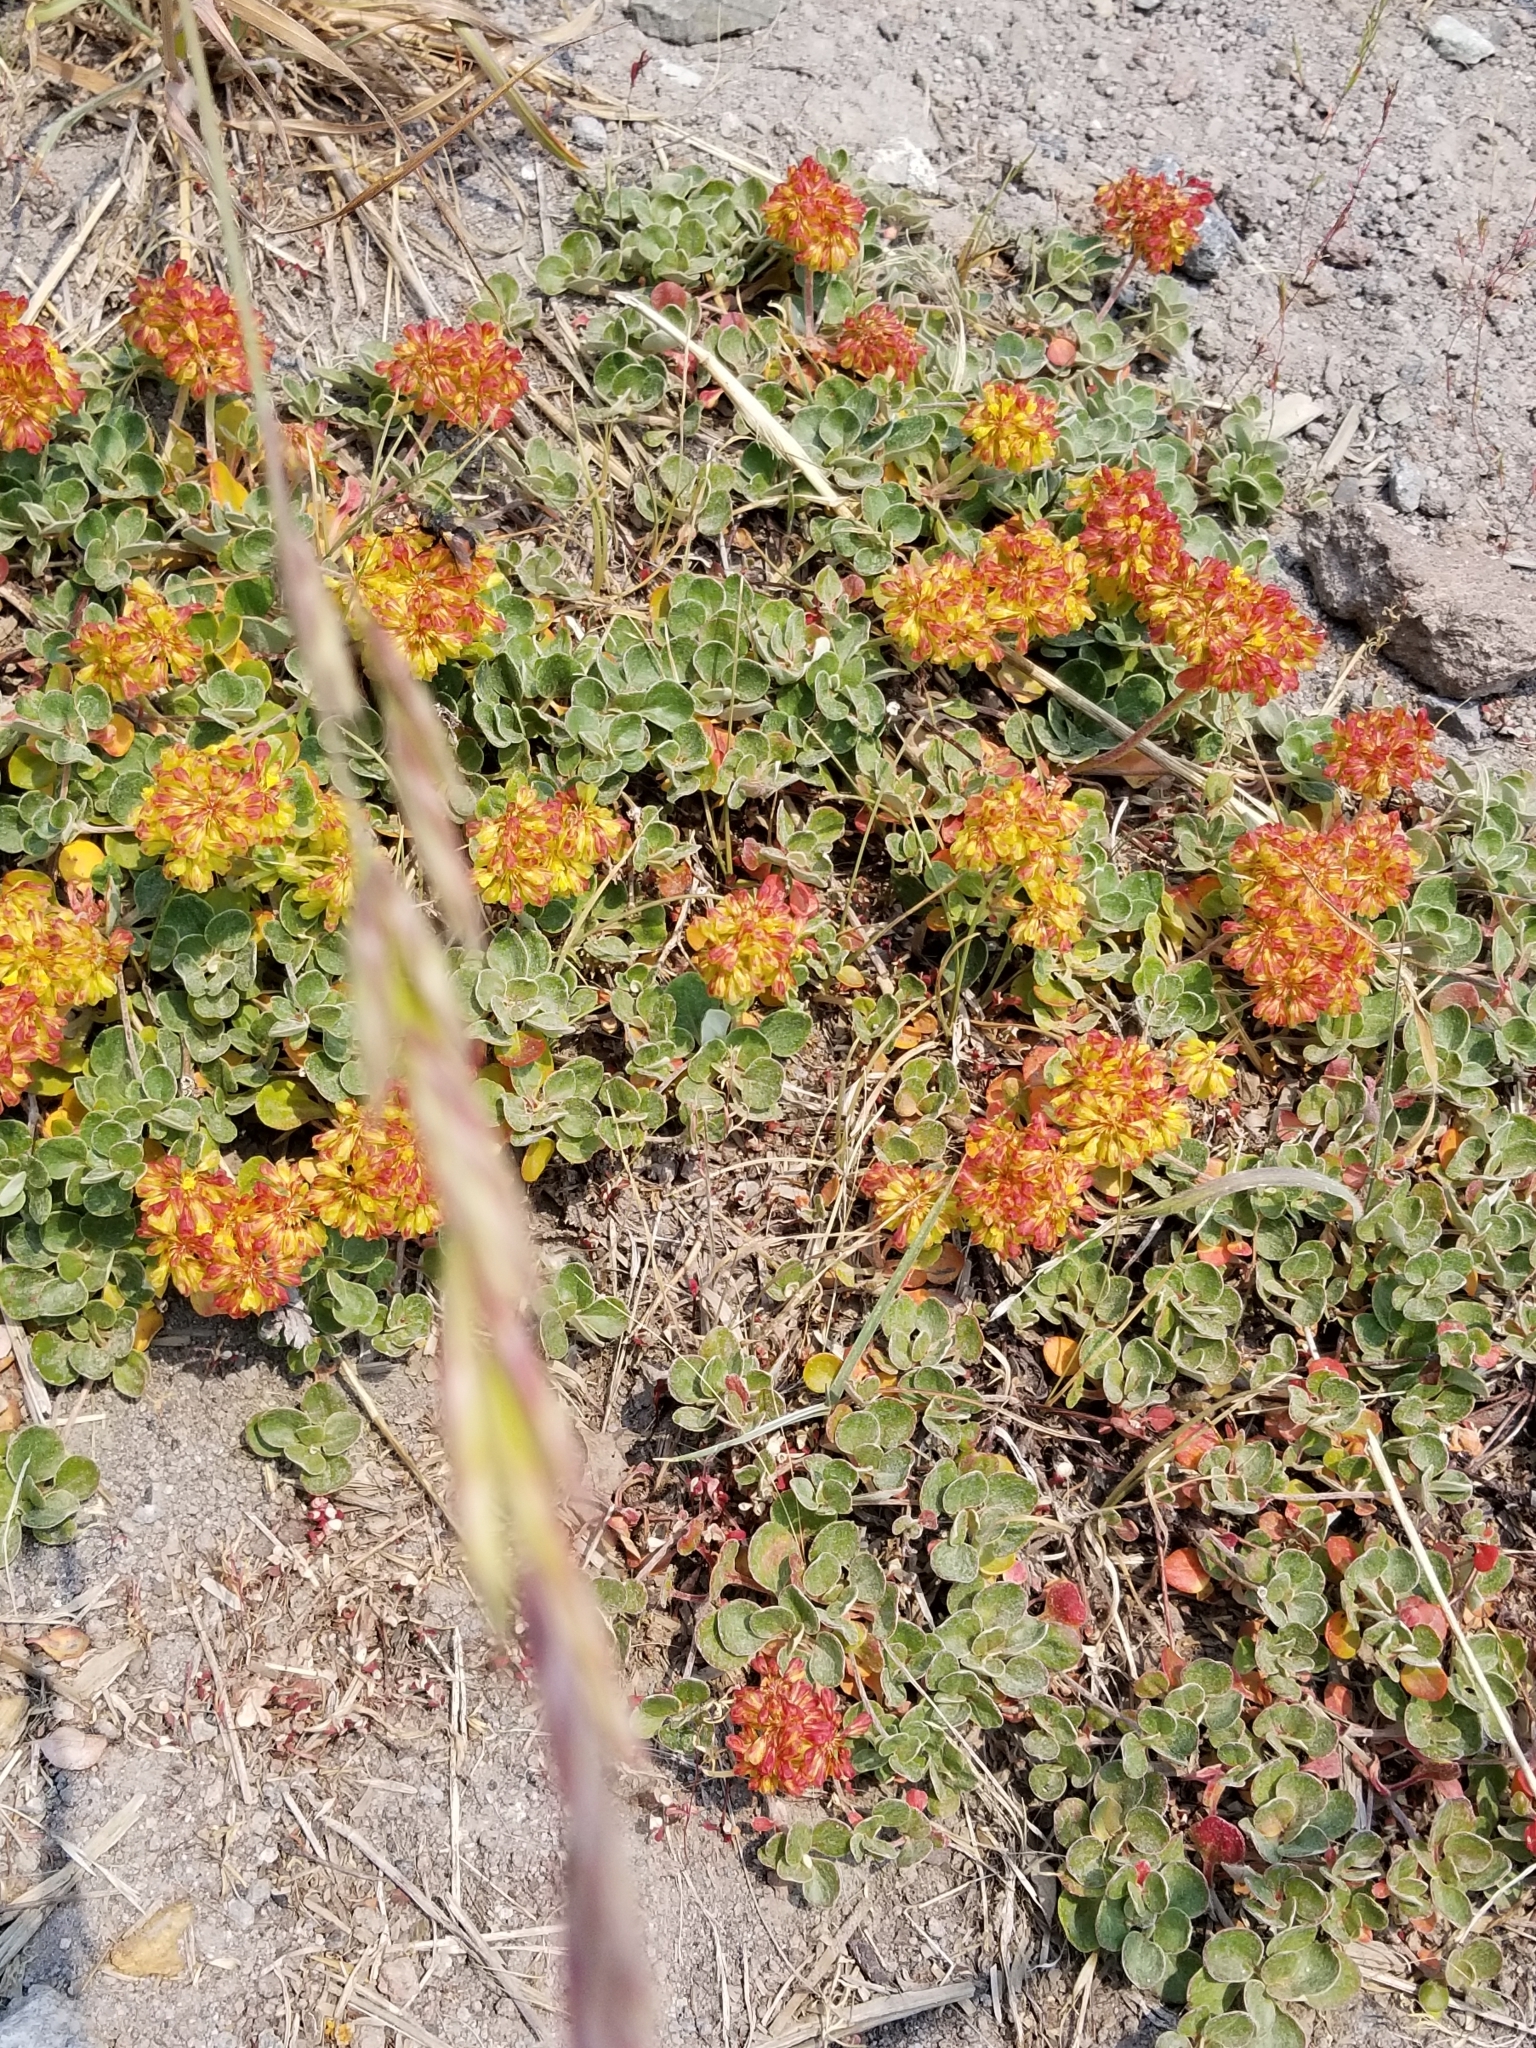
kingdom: Plantae
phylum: Tracheophyta
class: Magnoliopsida
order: Caryophyllales
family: Polygonaceae
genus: Eriogonum
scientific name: Eriogonum marifolium
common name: Marum-leaf wild buckwheat
